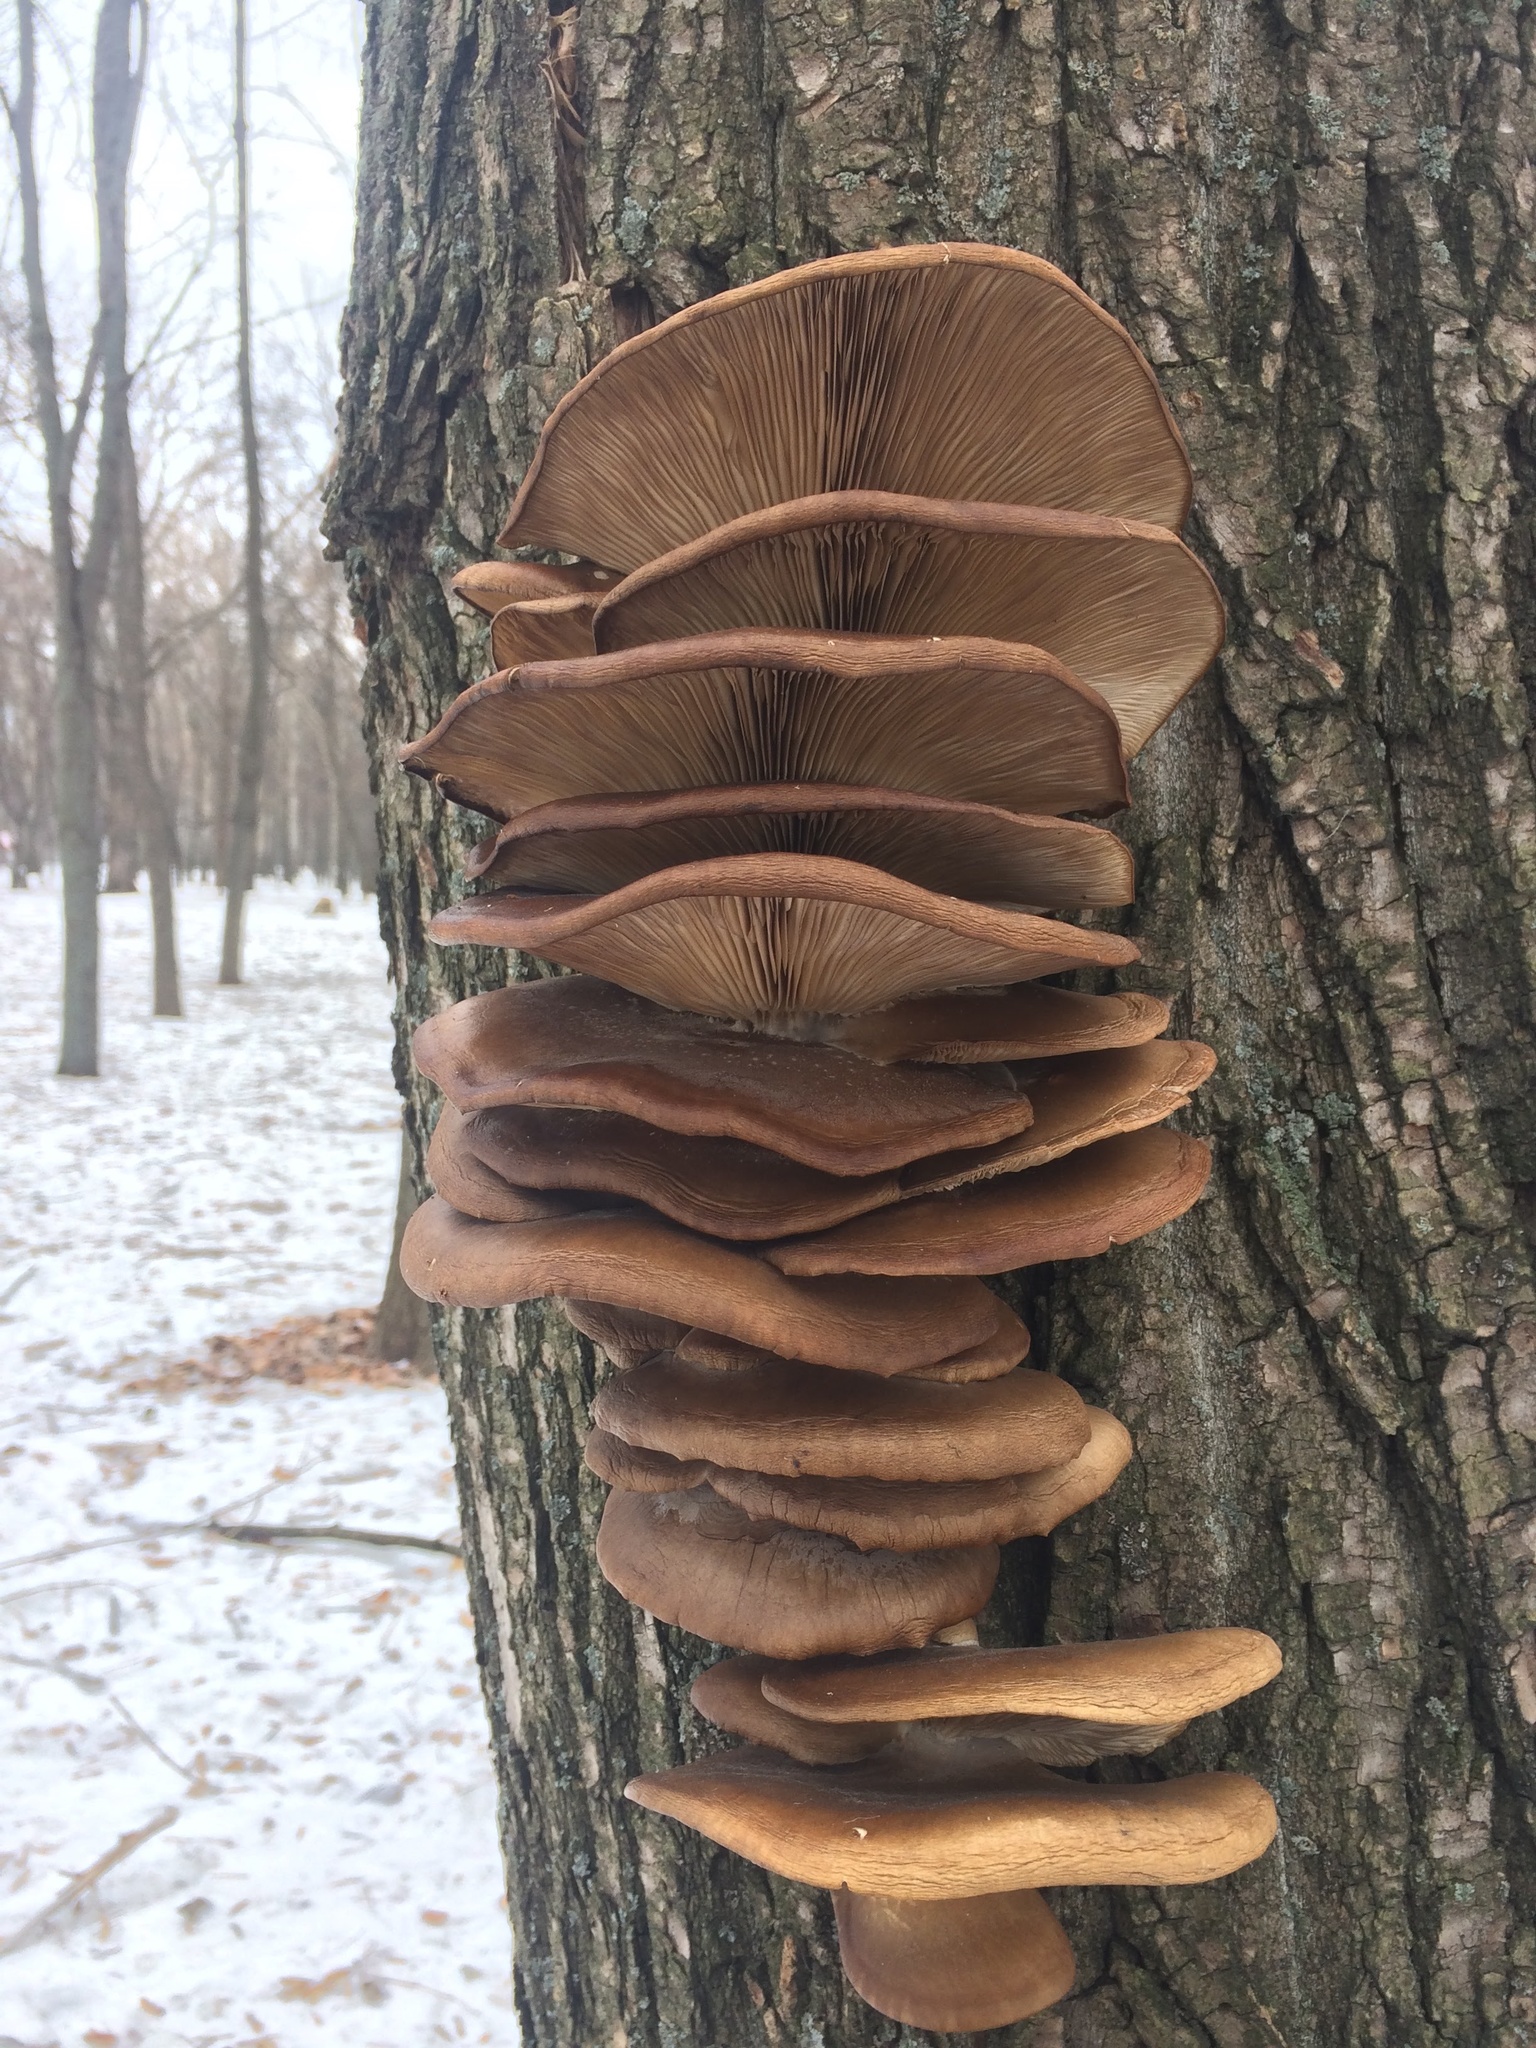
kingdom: Fungi
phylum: Basidiomycota
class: Agaricomycetes
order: Agaricales
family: Pleurotaceae
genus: Pleurotus
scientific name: Pleurotus ostreatus
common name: Oyster mushroom
